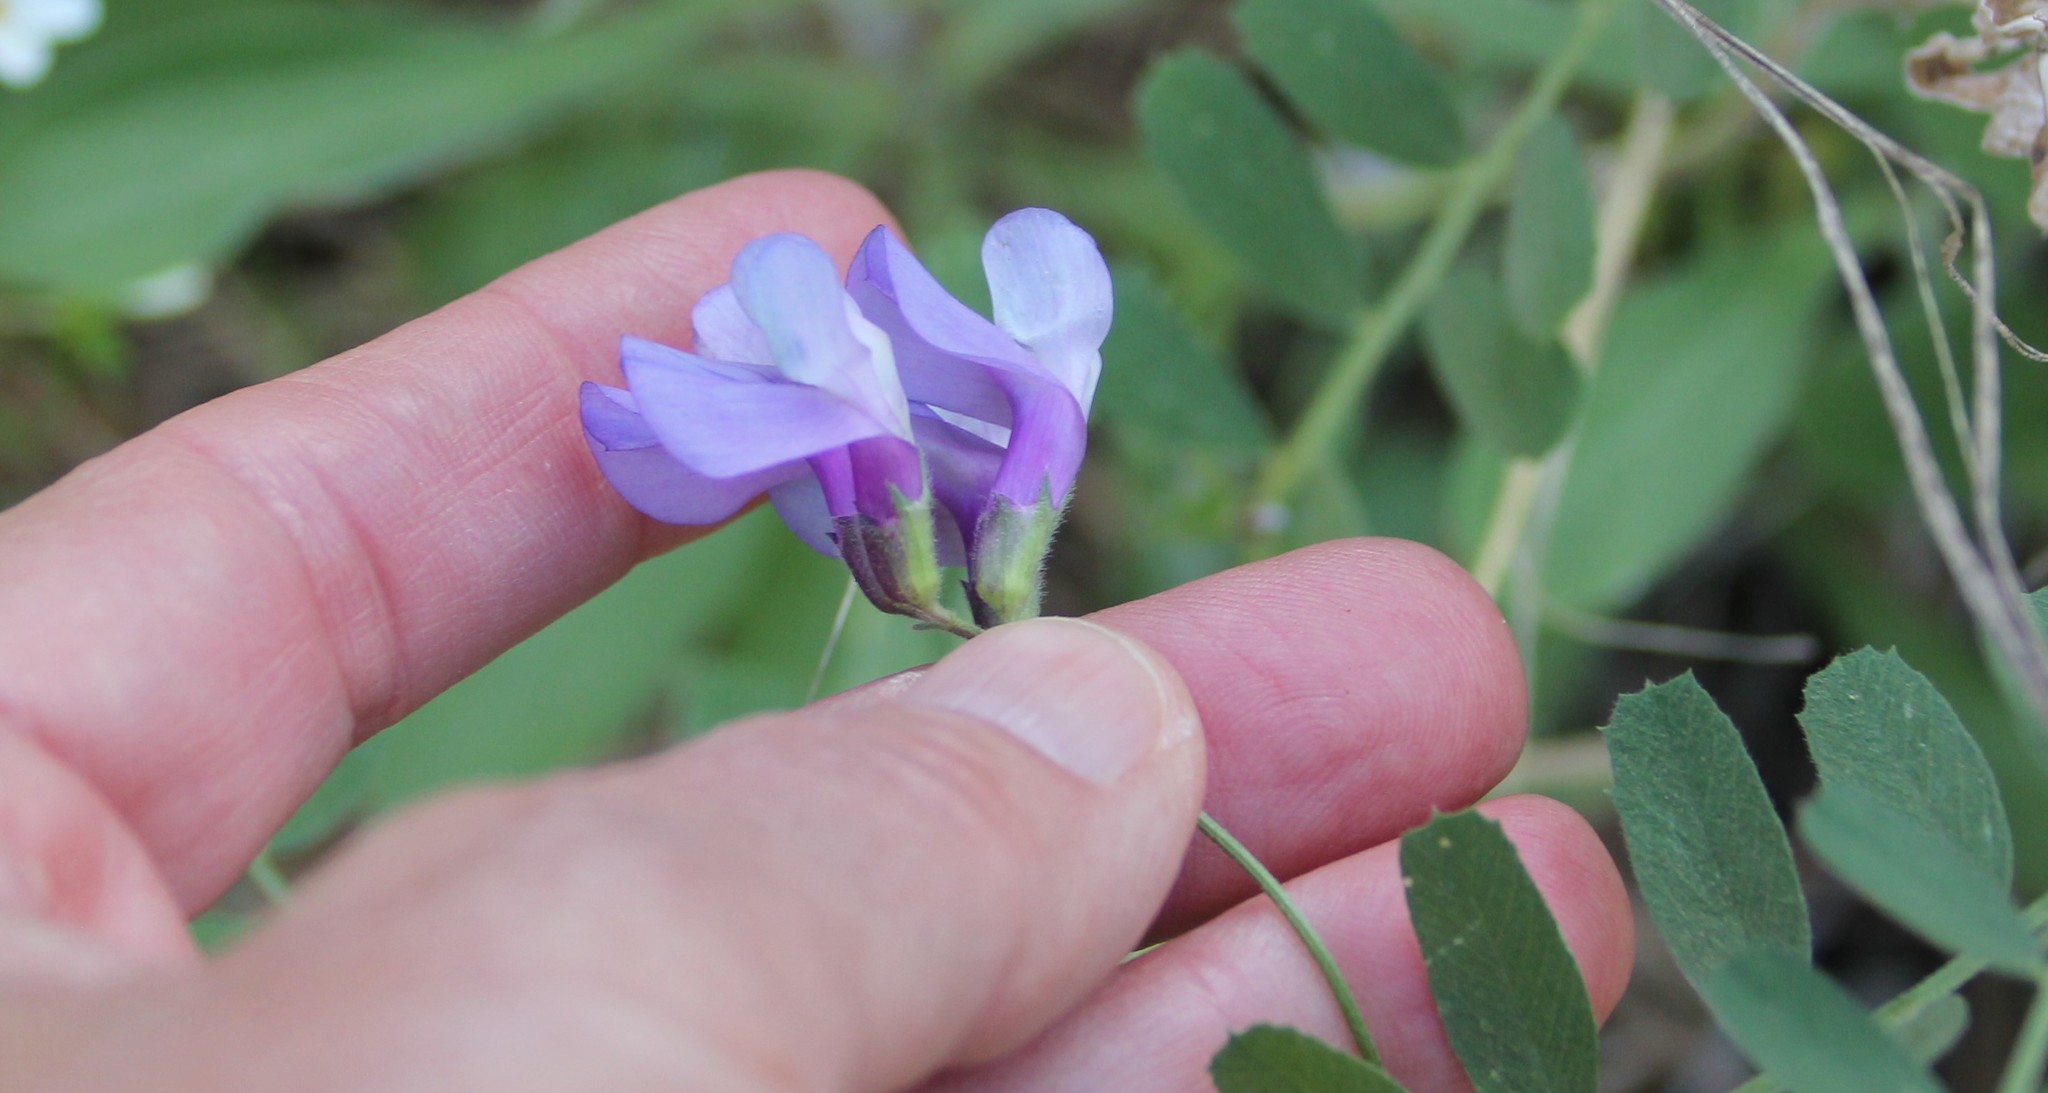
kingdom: Plantae
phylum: Tracheophyta
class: Magnoliopsida
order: Fabales
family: Fabaceae
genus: Vicia
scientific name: Vicia americana
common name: American vetch
